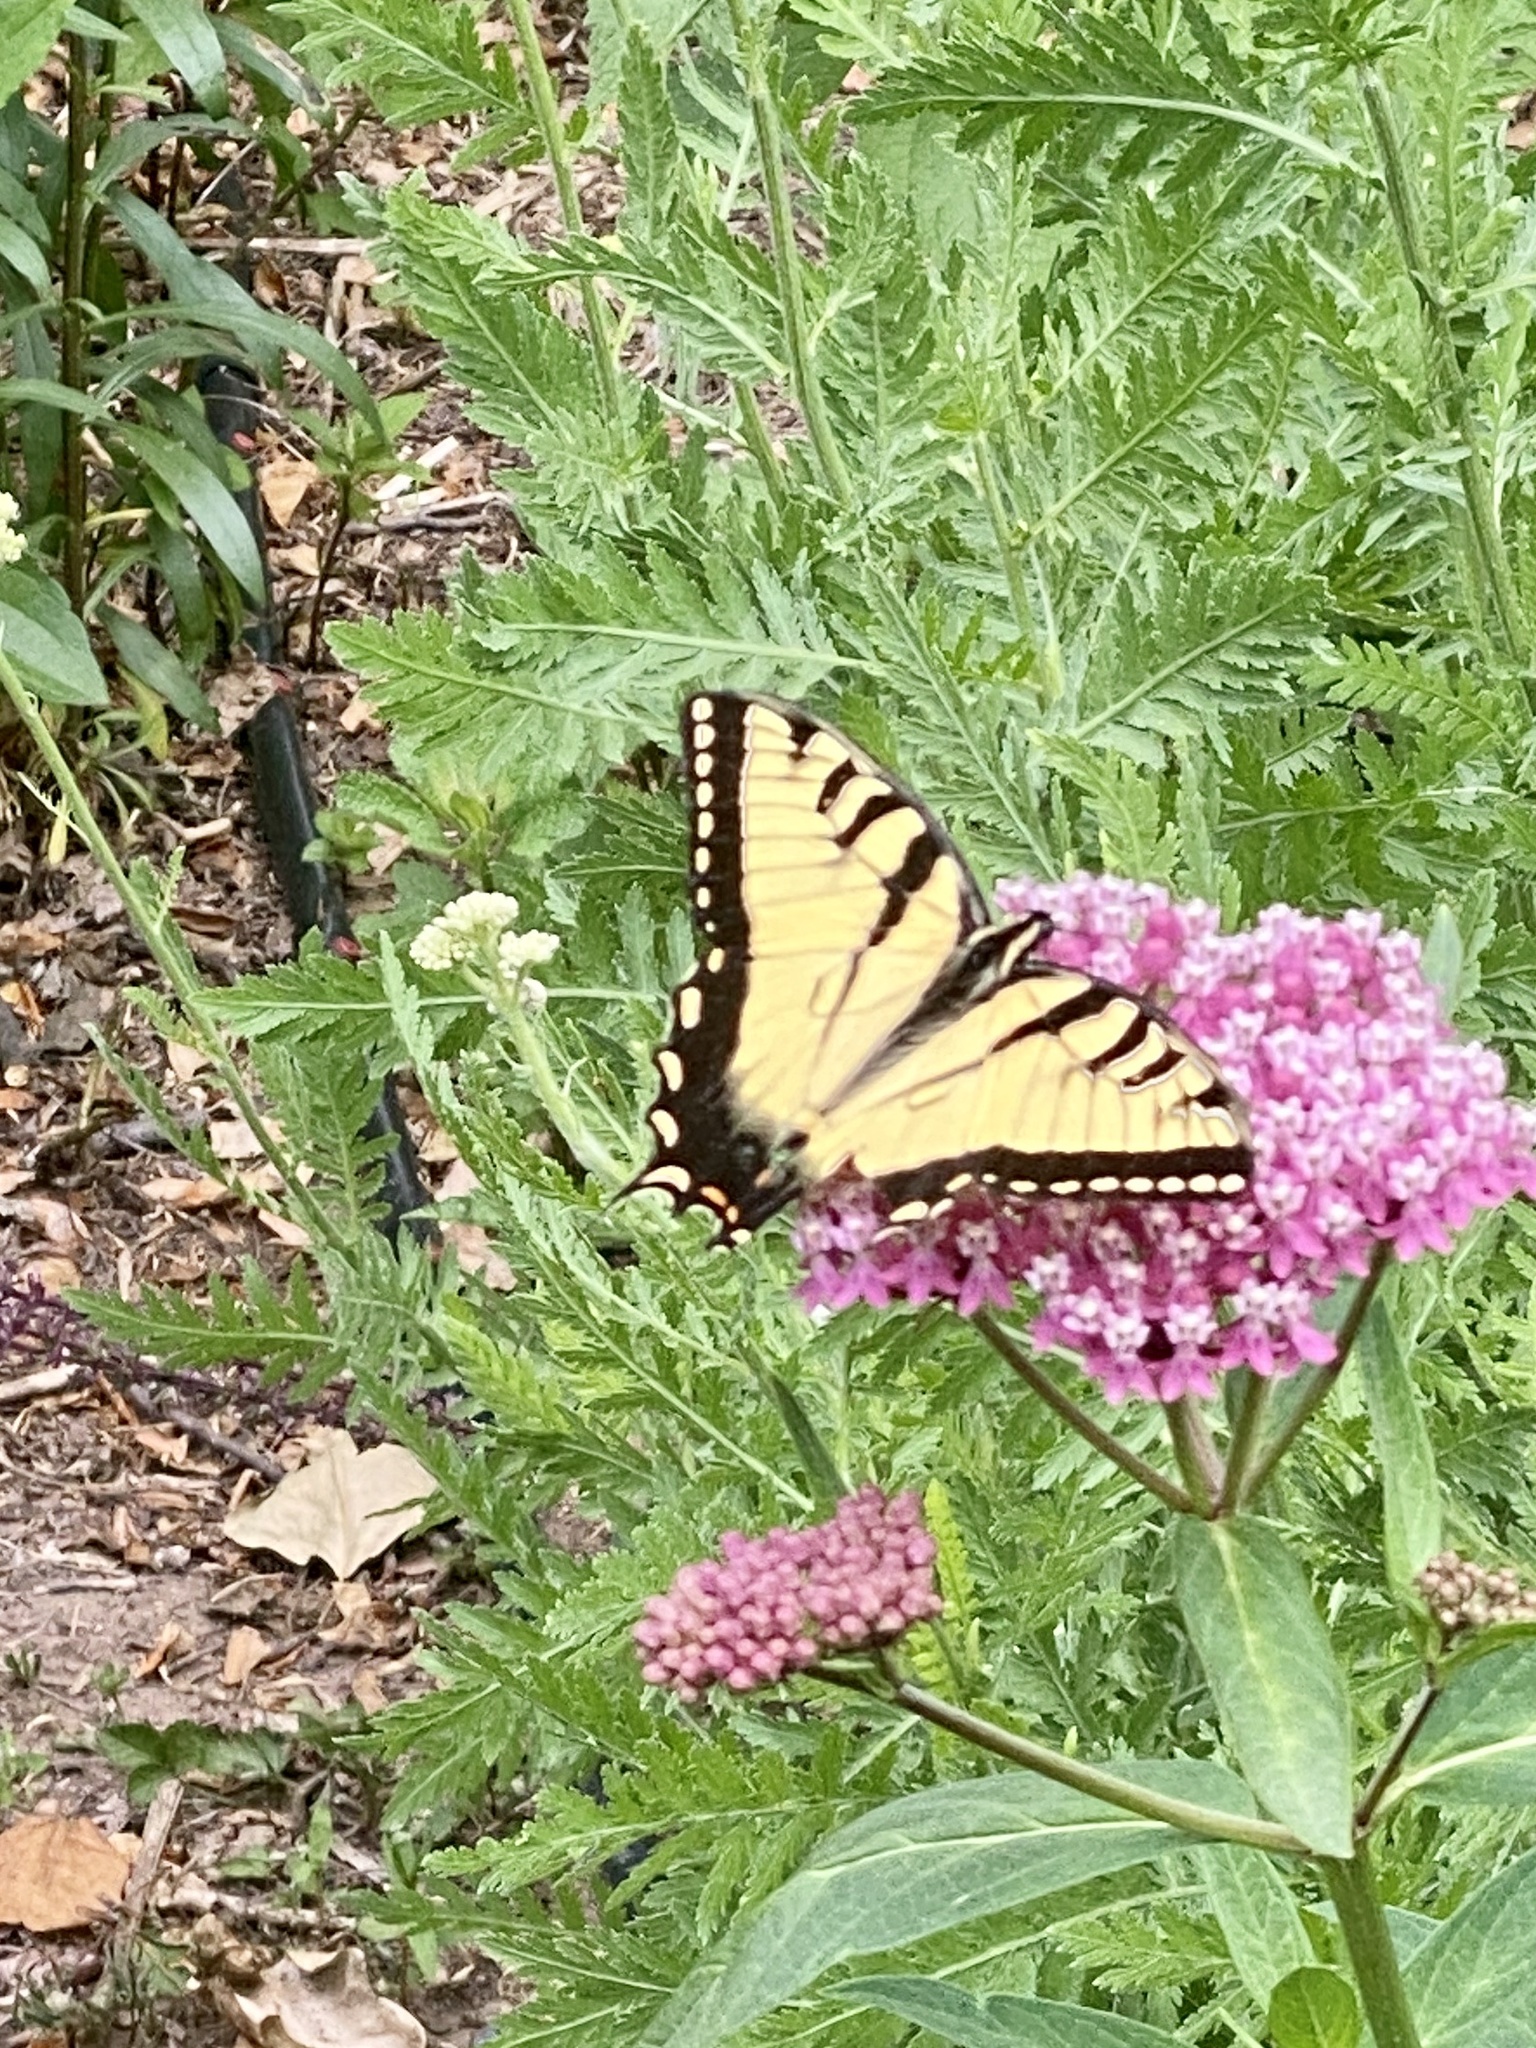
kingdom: Animalia
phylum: Arthropoda
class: Insecta
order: Lepidoptera
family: Papilionidae
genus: Papilio
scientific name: Papilio glaucus
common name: Tiger swallowtail
